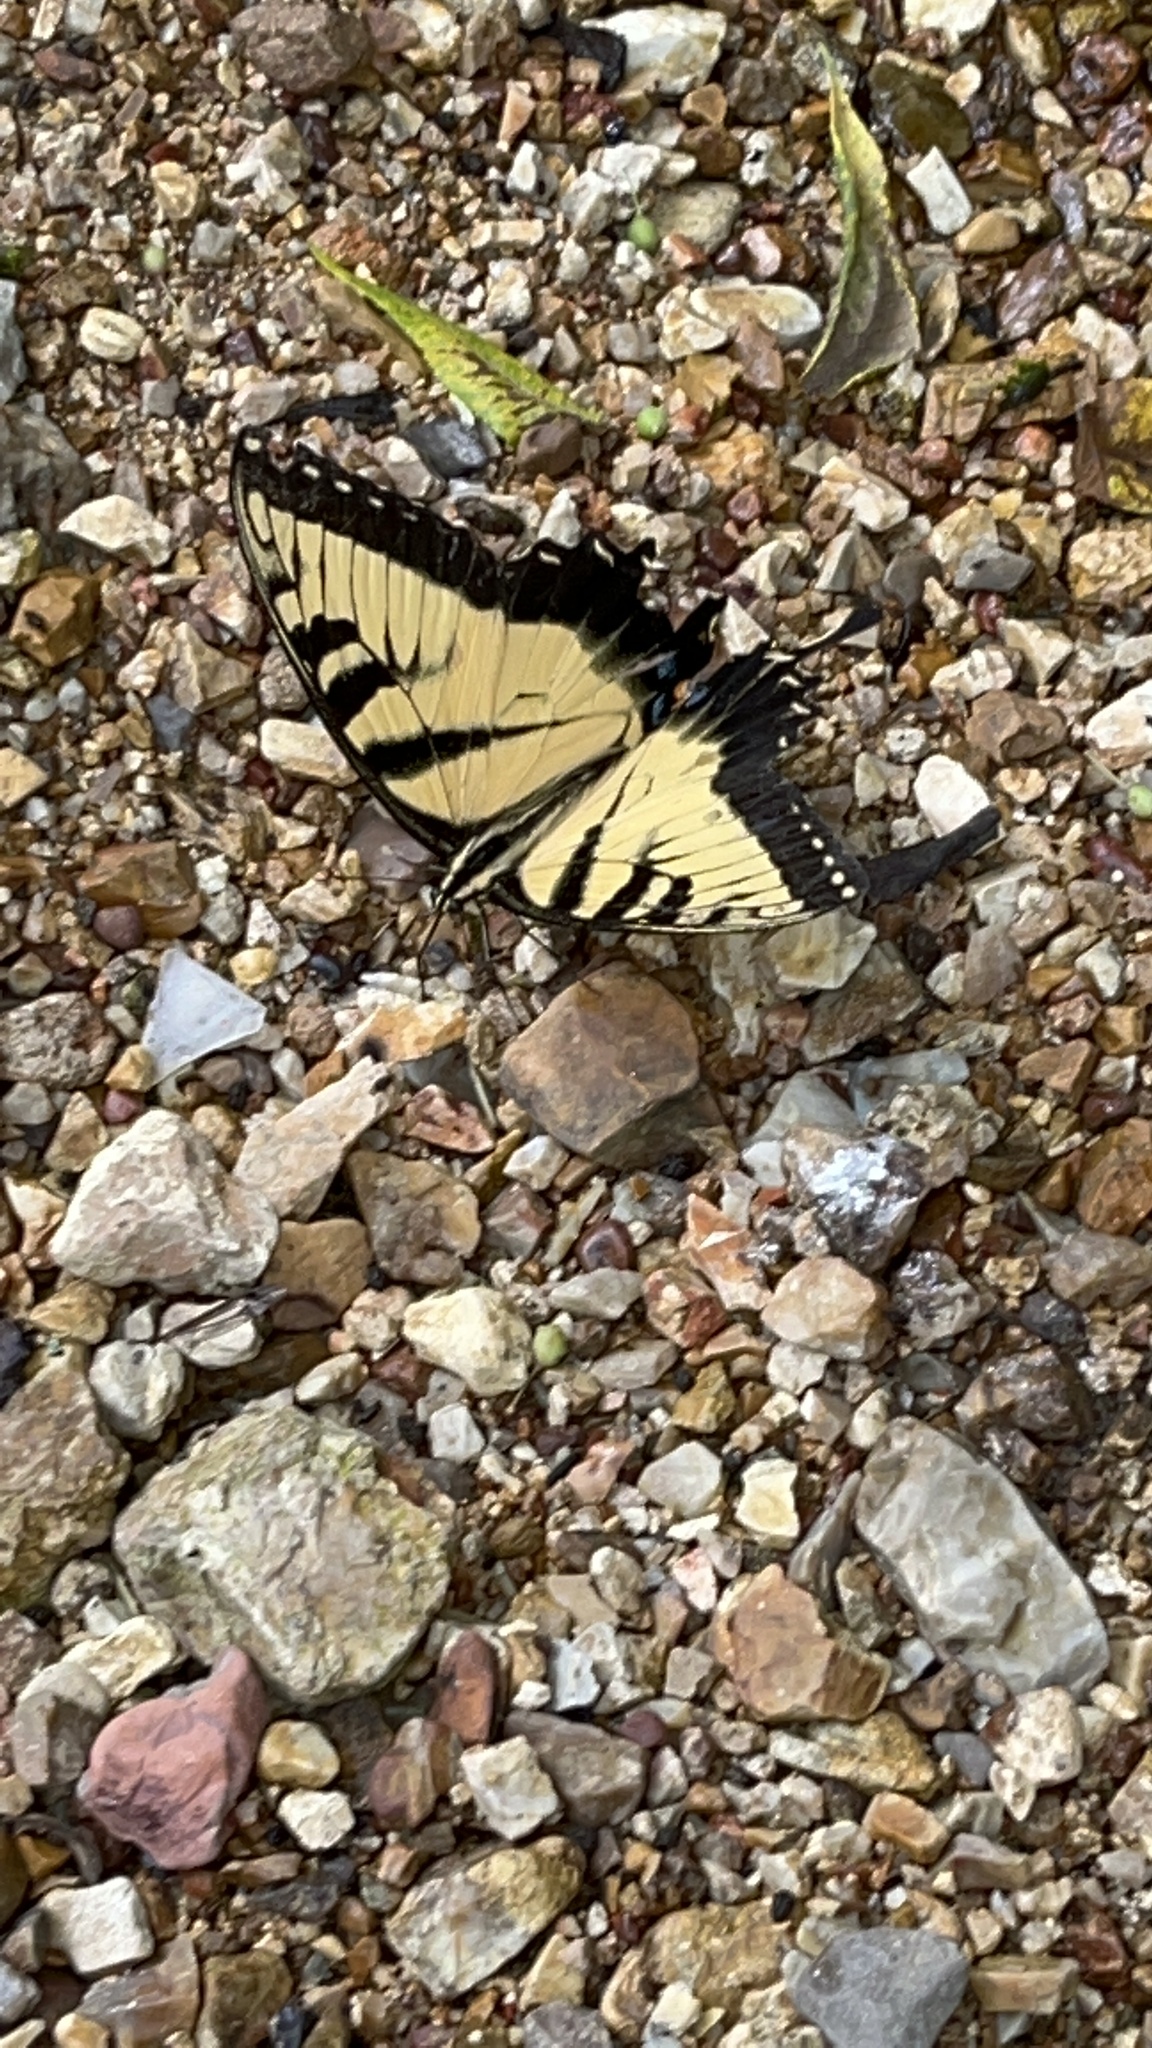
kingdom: Animalia
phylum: Arthropoda
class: Insecta
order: Lepidoptera
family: Papilionidae
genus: Papilio
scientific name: Papilio glaucus
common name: Tiger swallowtail
